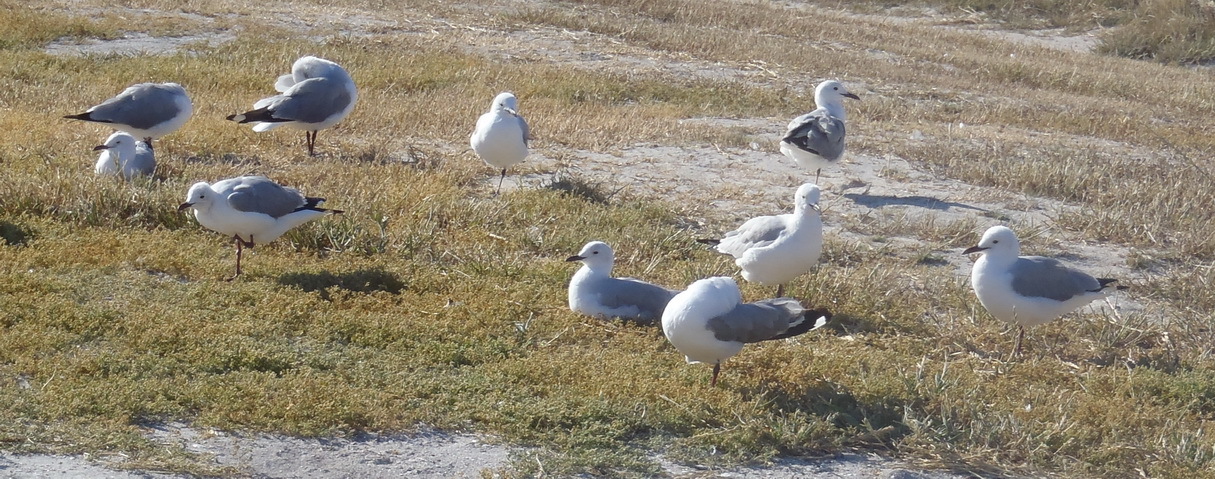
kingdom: Animalia
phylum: Chordata
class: Aves
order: Charadriiformes
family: Laridae
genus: Chroicocephalus
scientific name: Chroicocephalus hartlaubii
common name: Hartlaub's gull
